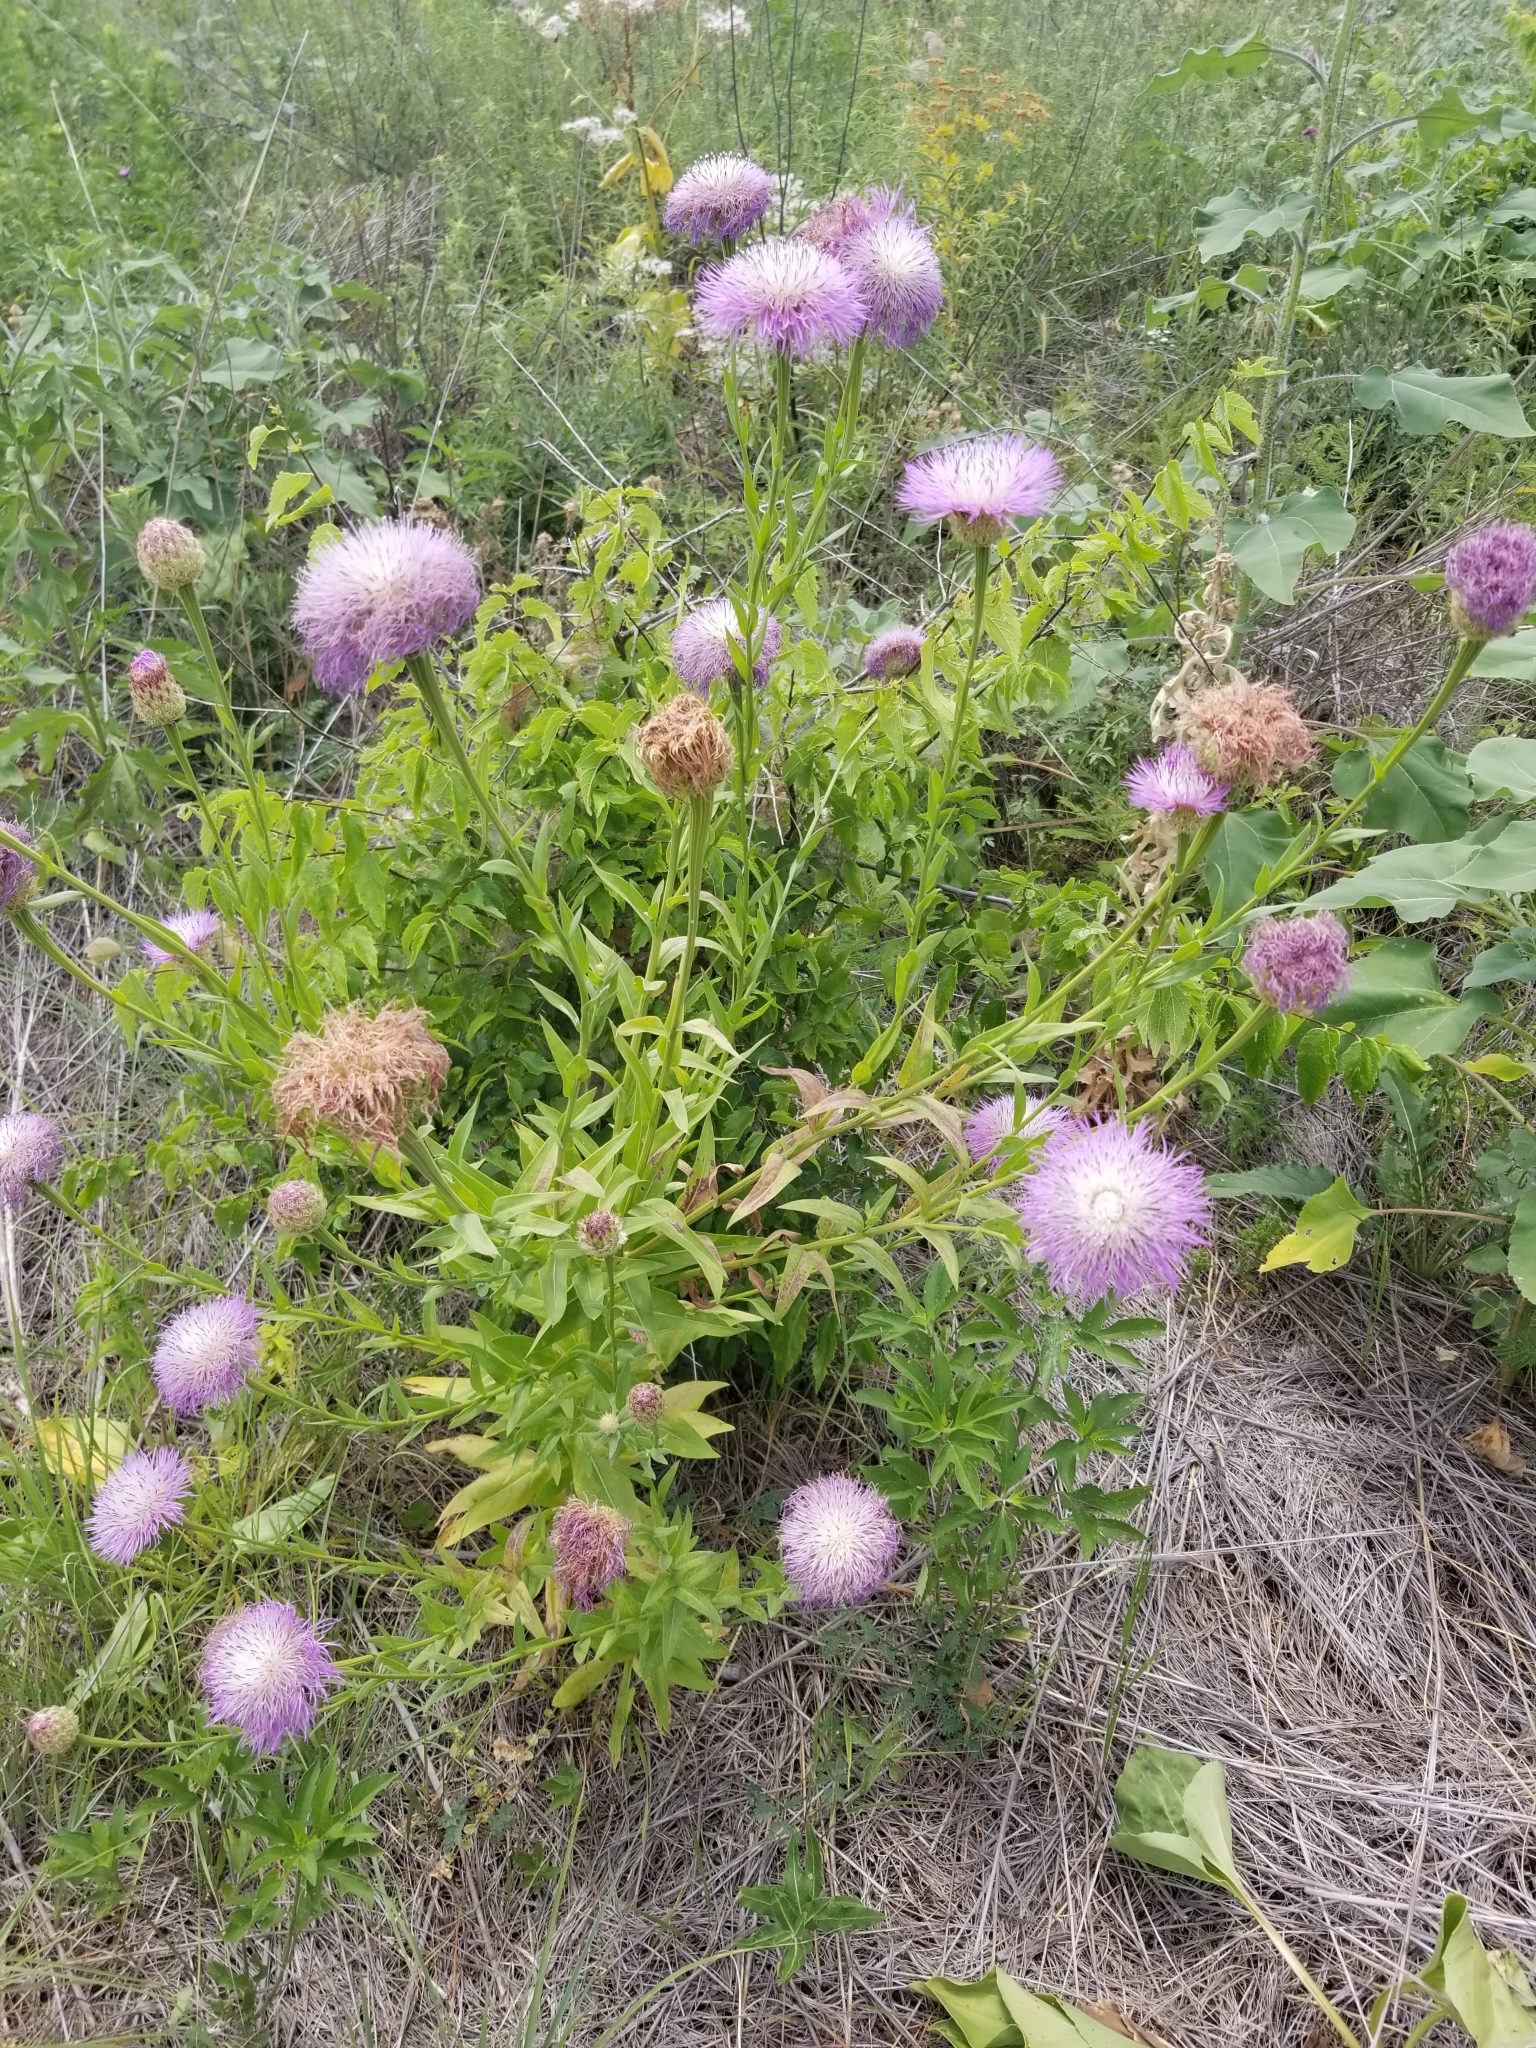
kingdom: Plantae
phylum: Tracheophyta
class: Magnoliopsida
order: Asterales
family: Asteraceae
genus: Plectocephalus
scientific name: Plectocephalus americanus
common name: American basket-flower
